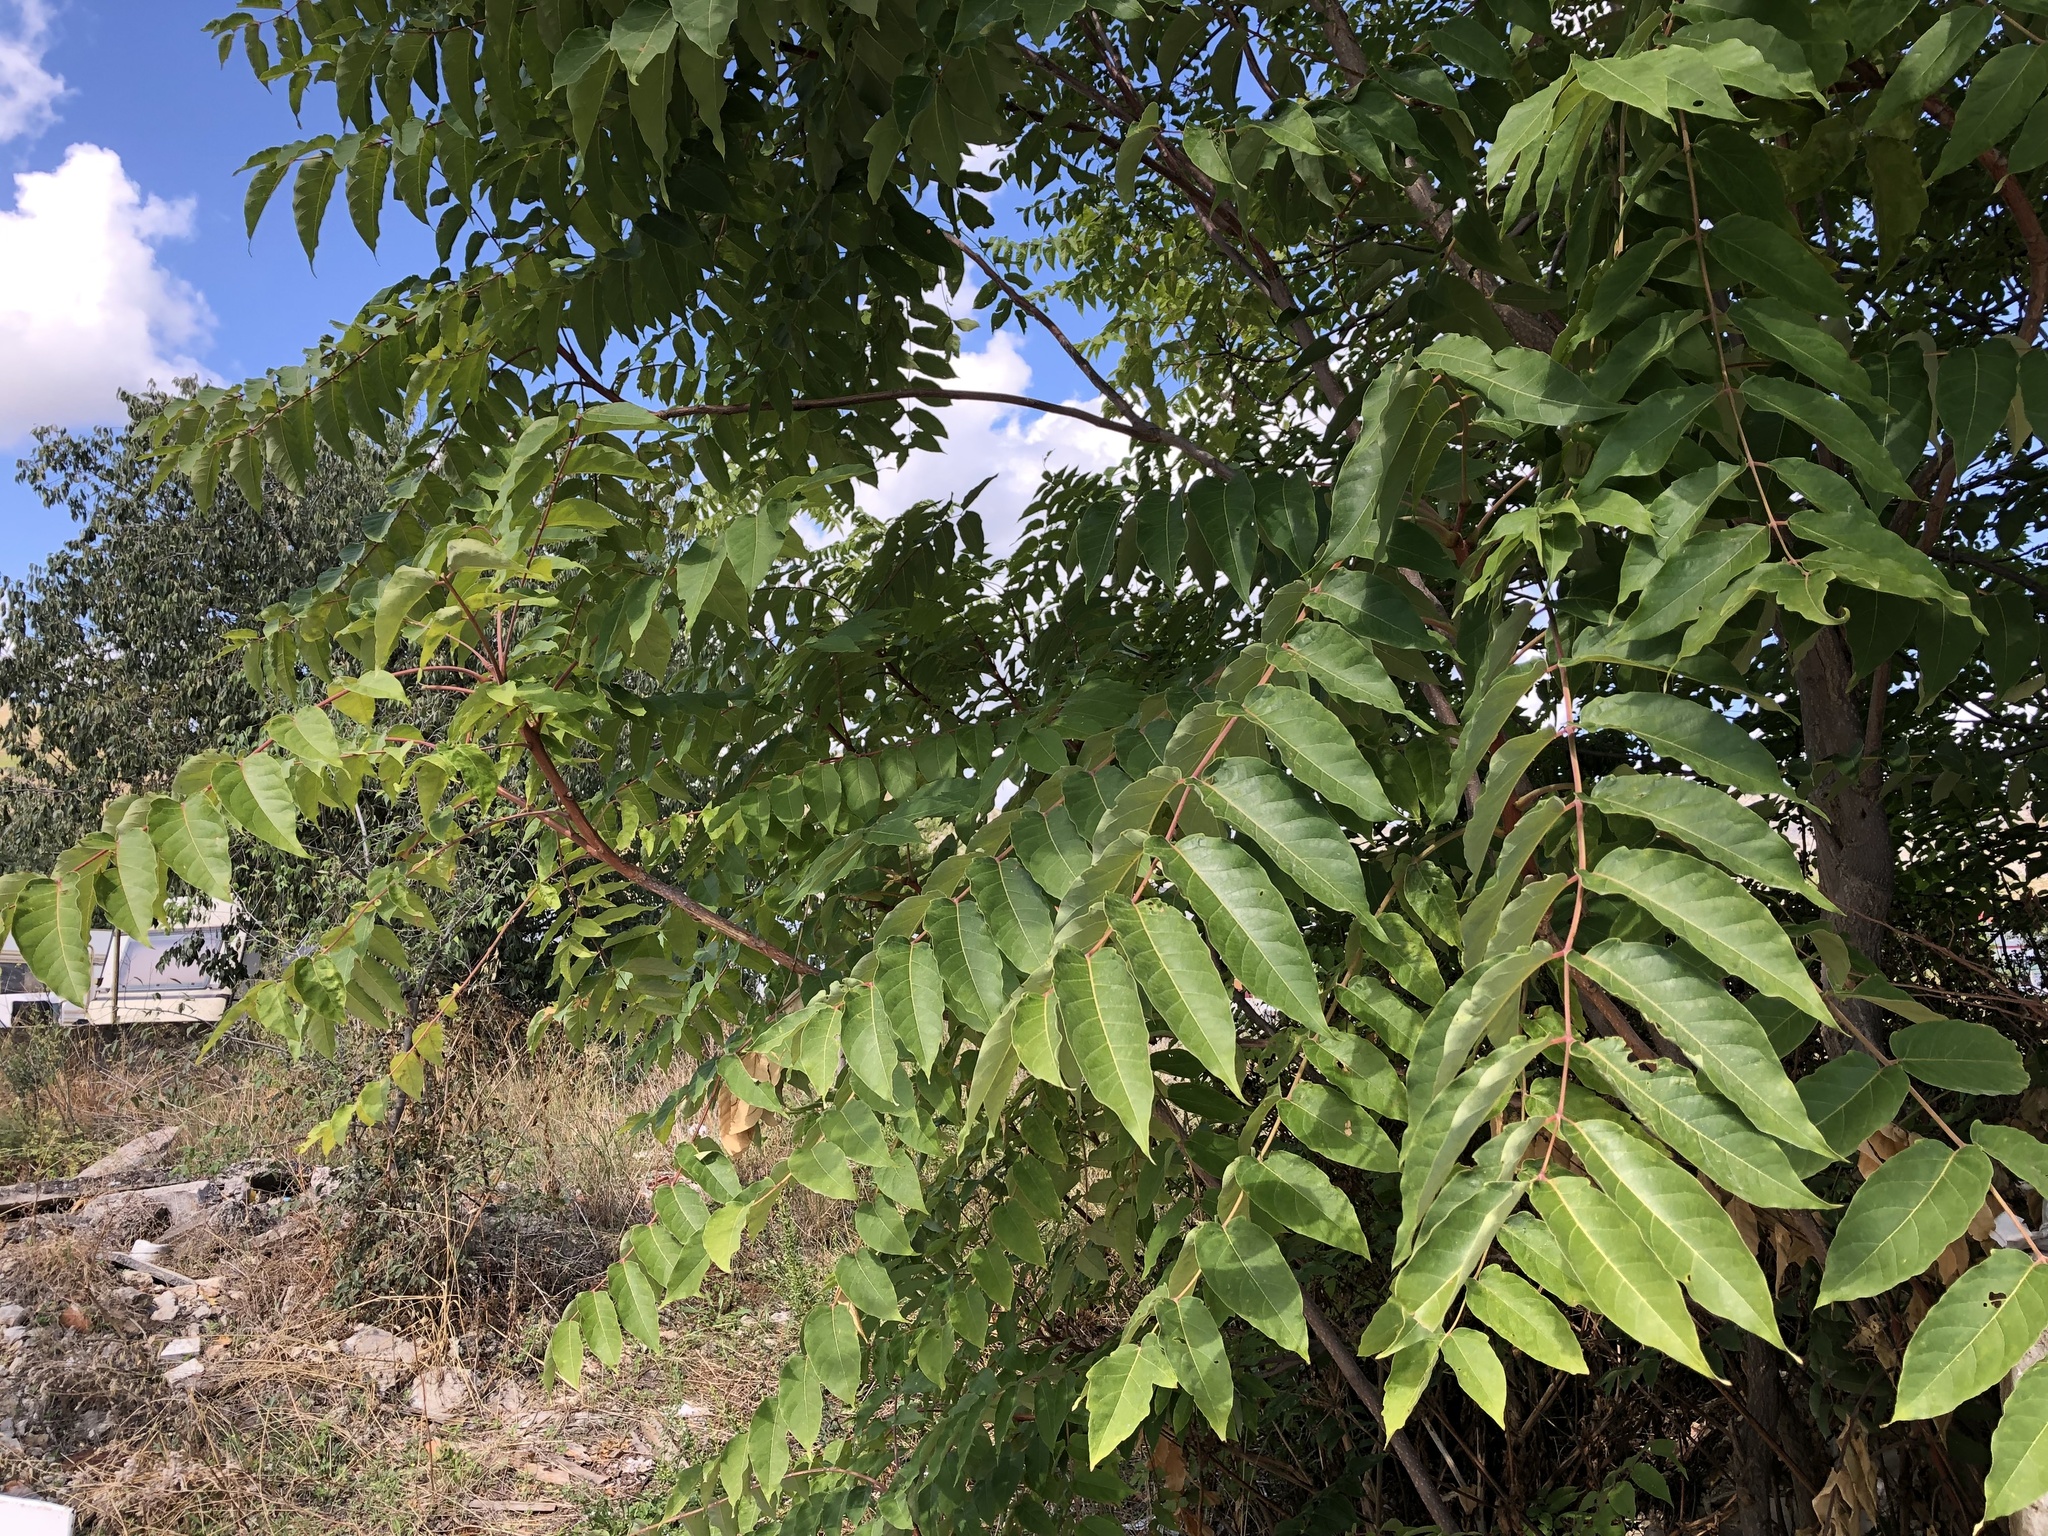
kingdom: Plantae
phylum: Tracheophyta
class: Magnoliopsida
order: Sapindales
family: Simaroubaceae
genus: Ailanthus
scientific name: Ailanthus altissima
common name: Tree-of-heaven
